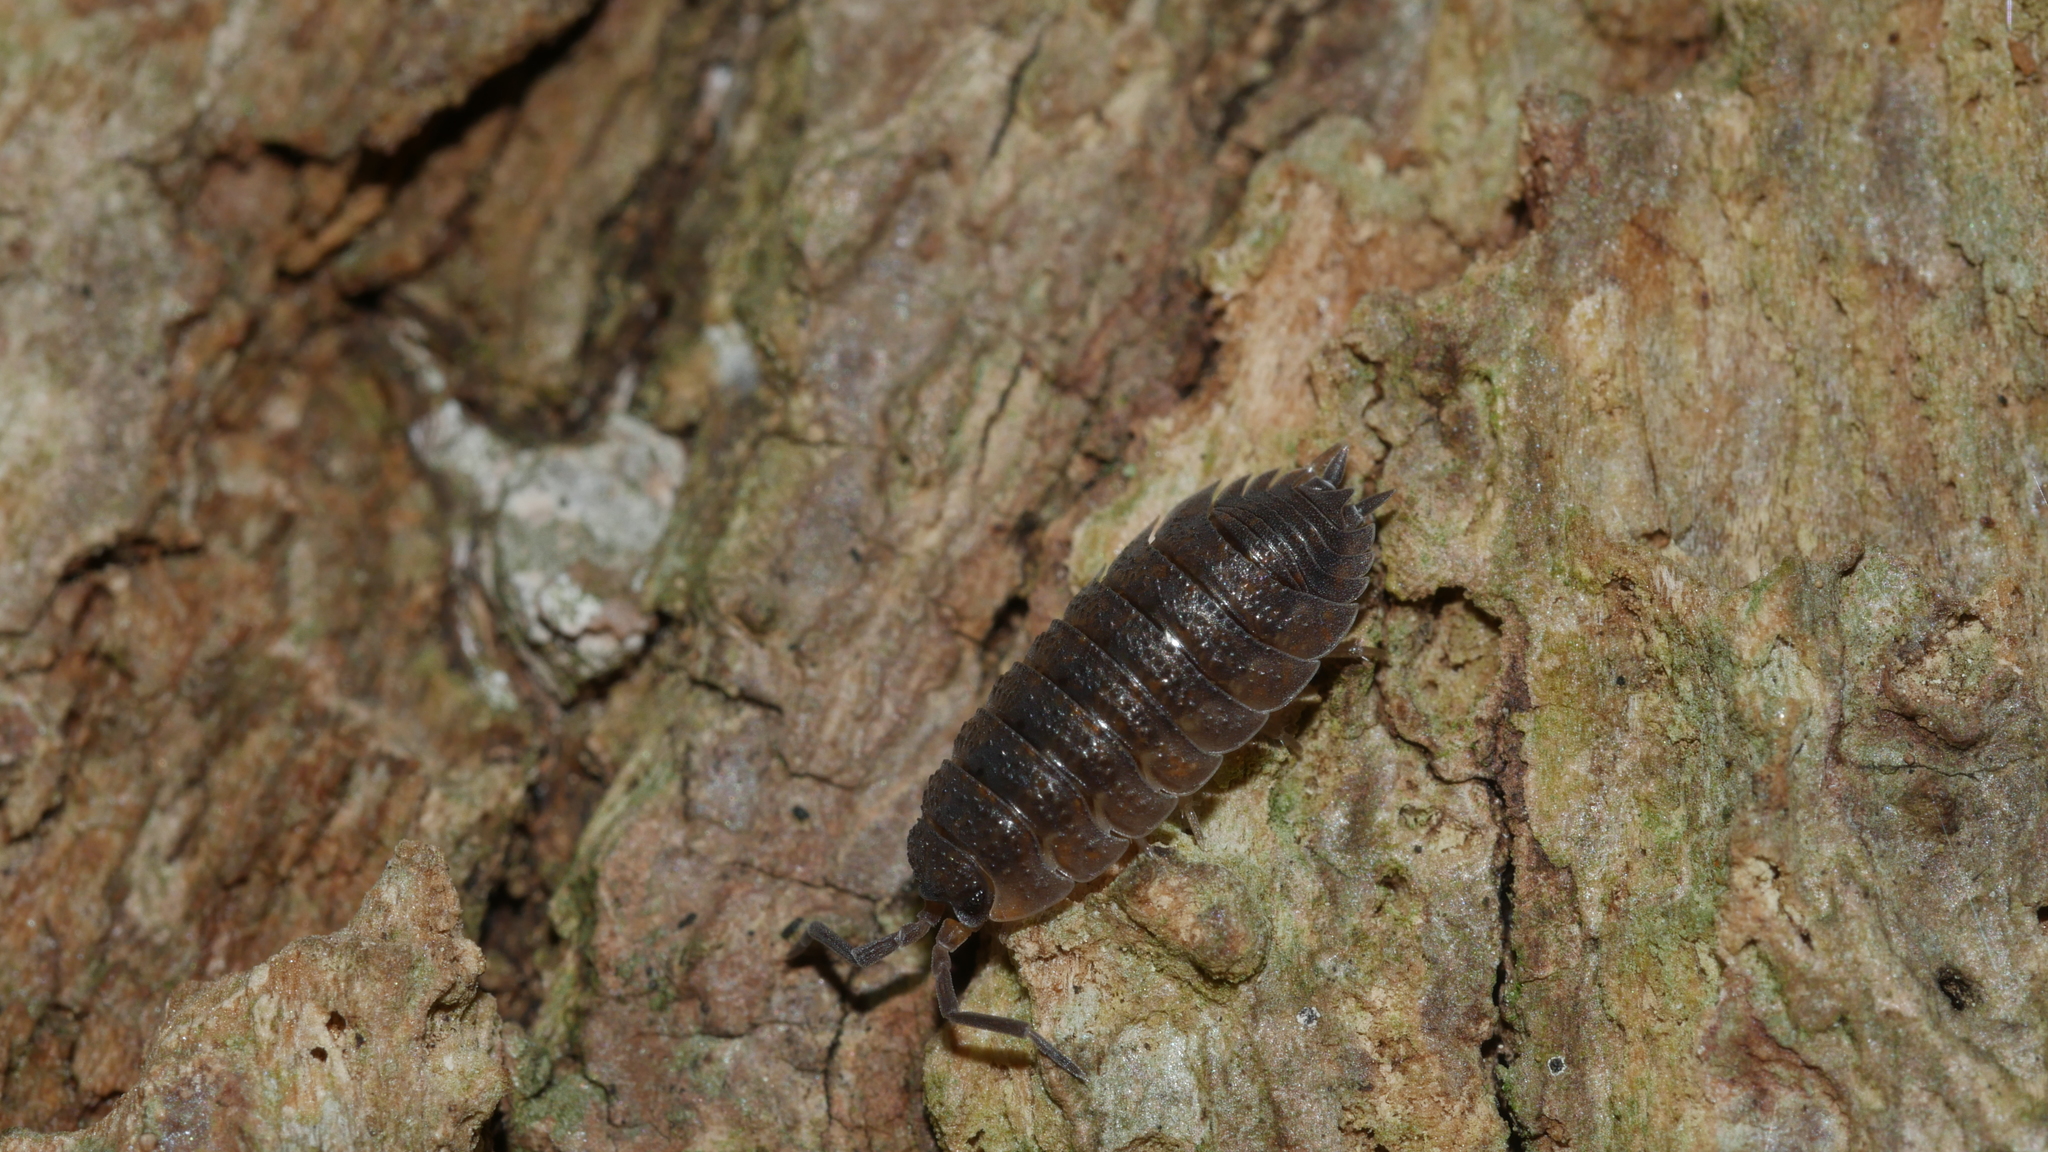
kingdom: Animalia
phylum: Arthropoda
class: Malacostraca
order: Isopoda
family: Porcellionidae
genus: Porcellio
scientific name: Porcellio scaber
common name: Common rough woodlouse
